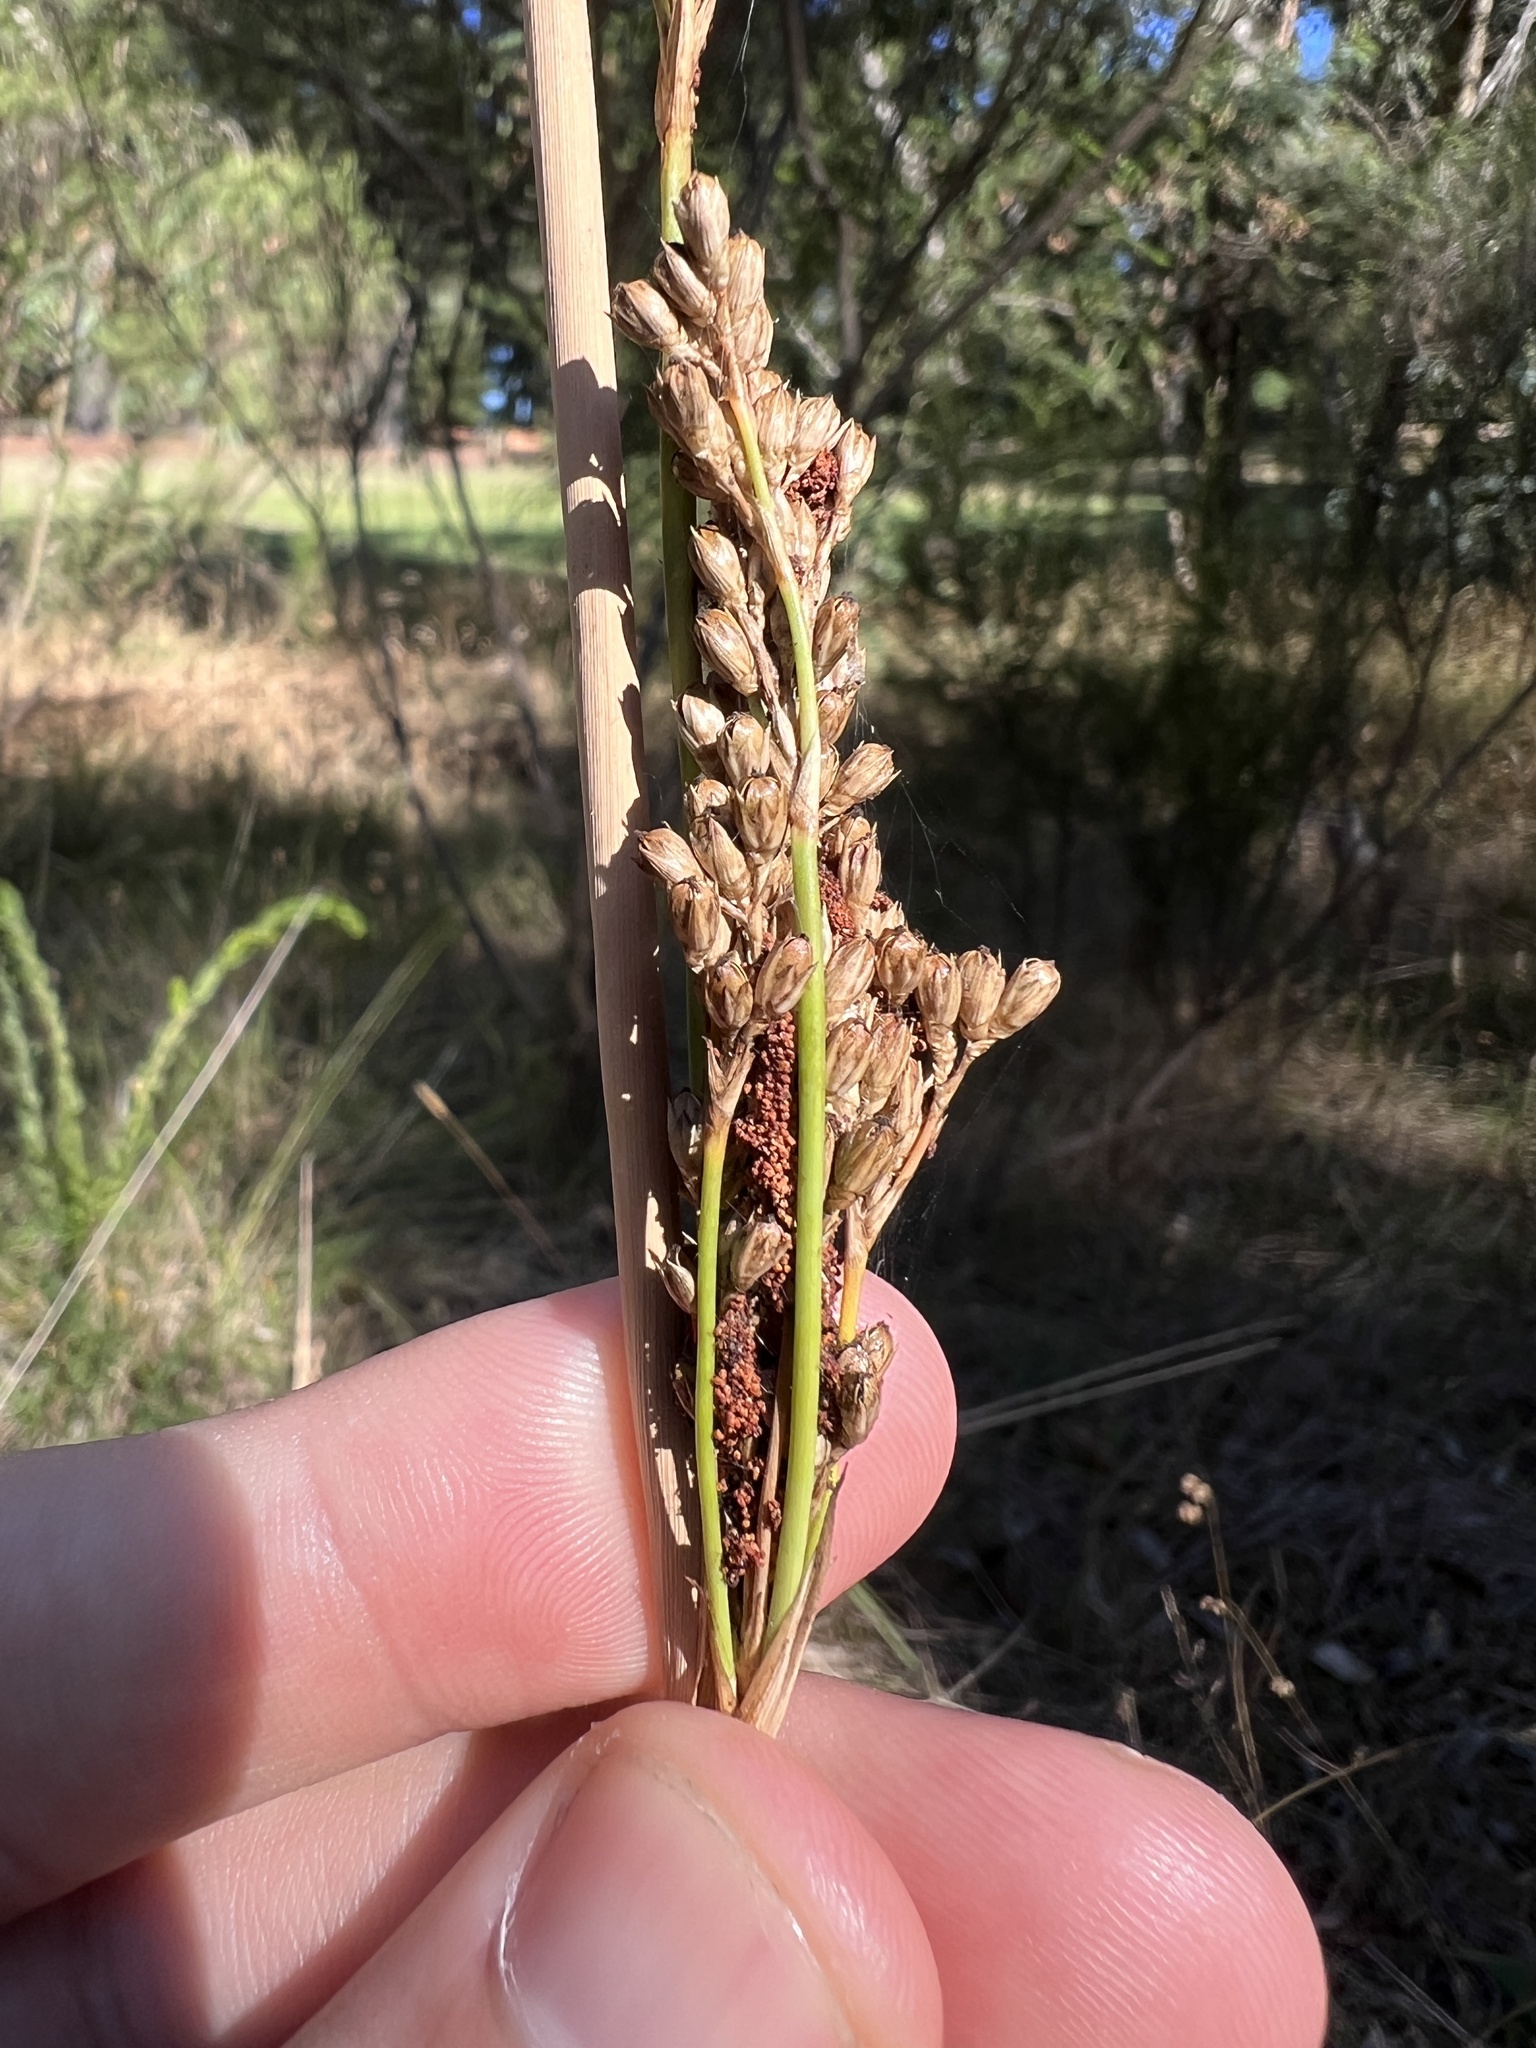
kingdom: Plantae
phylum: Tracheophyta
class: Liliopsida
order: Poales
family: Juncaceae
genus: Juncus
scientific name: Juncus pallidus
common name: Great soft-rush
